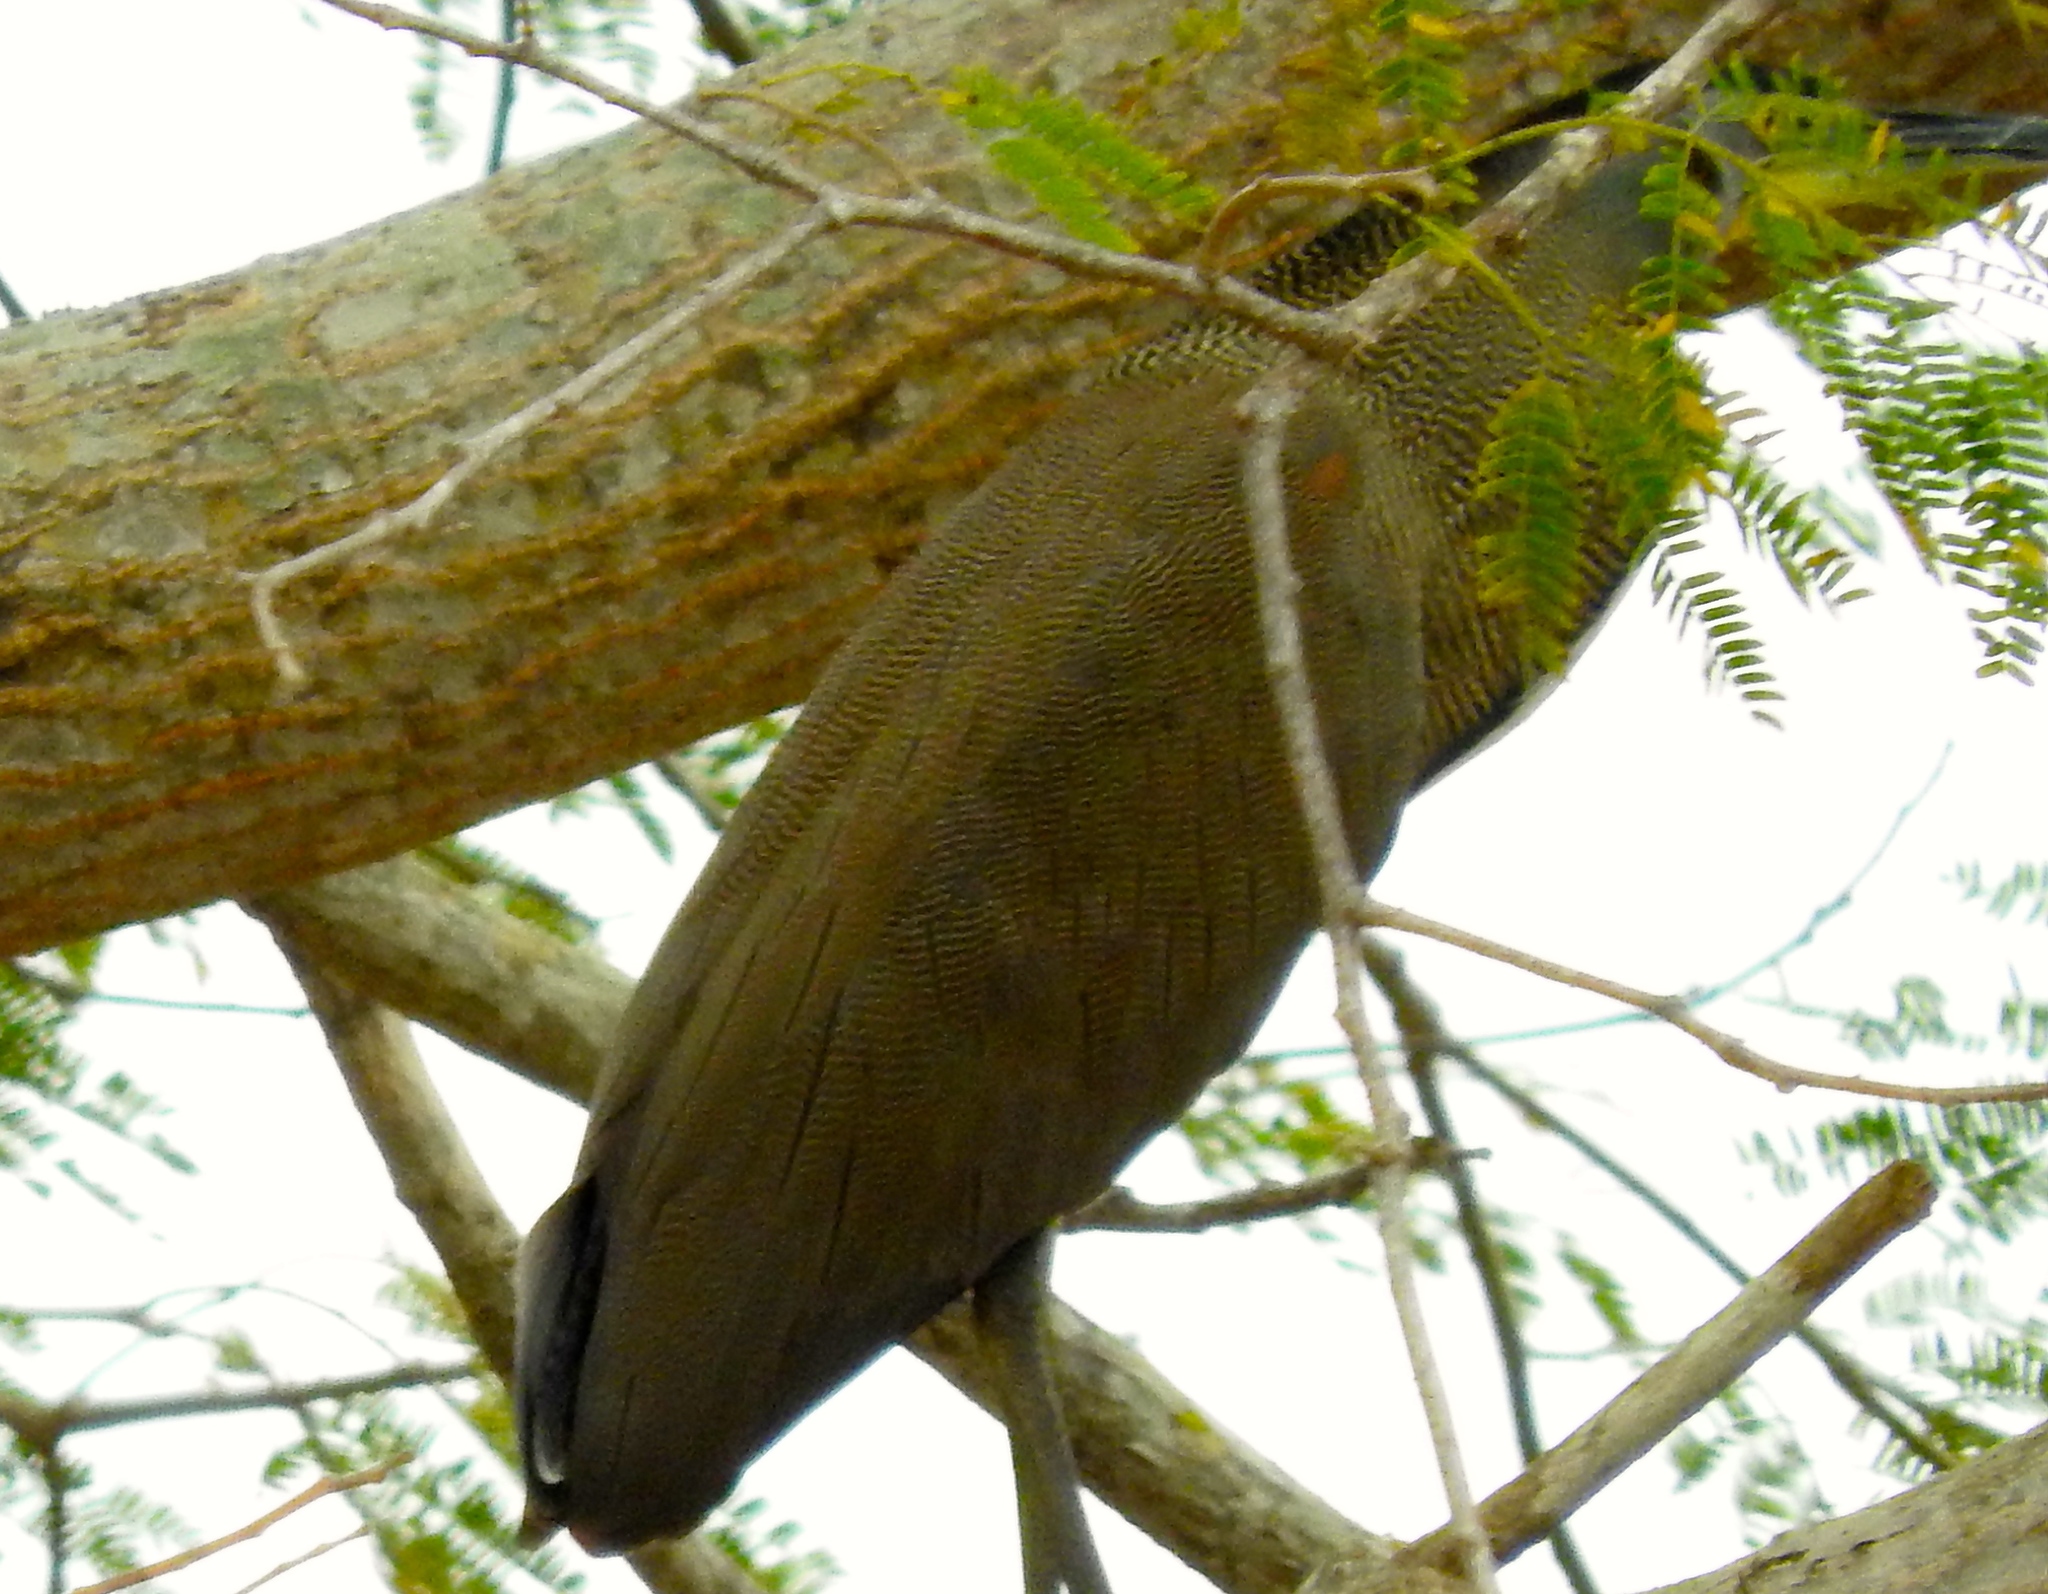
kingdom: Animalia
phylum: Chordata
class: Aves
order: Pelecaniformes
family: Ardeidae
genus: Tigrisoma
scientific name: Tigrisoma mexicanum
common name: Bare-throated tiger-heron
